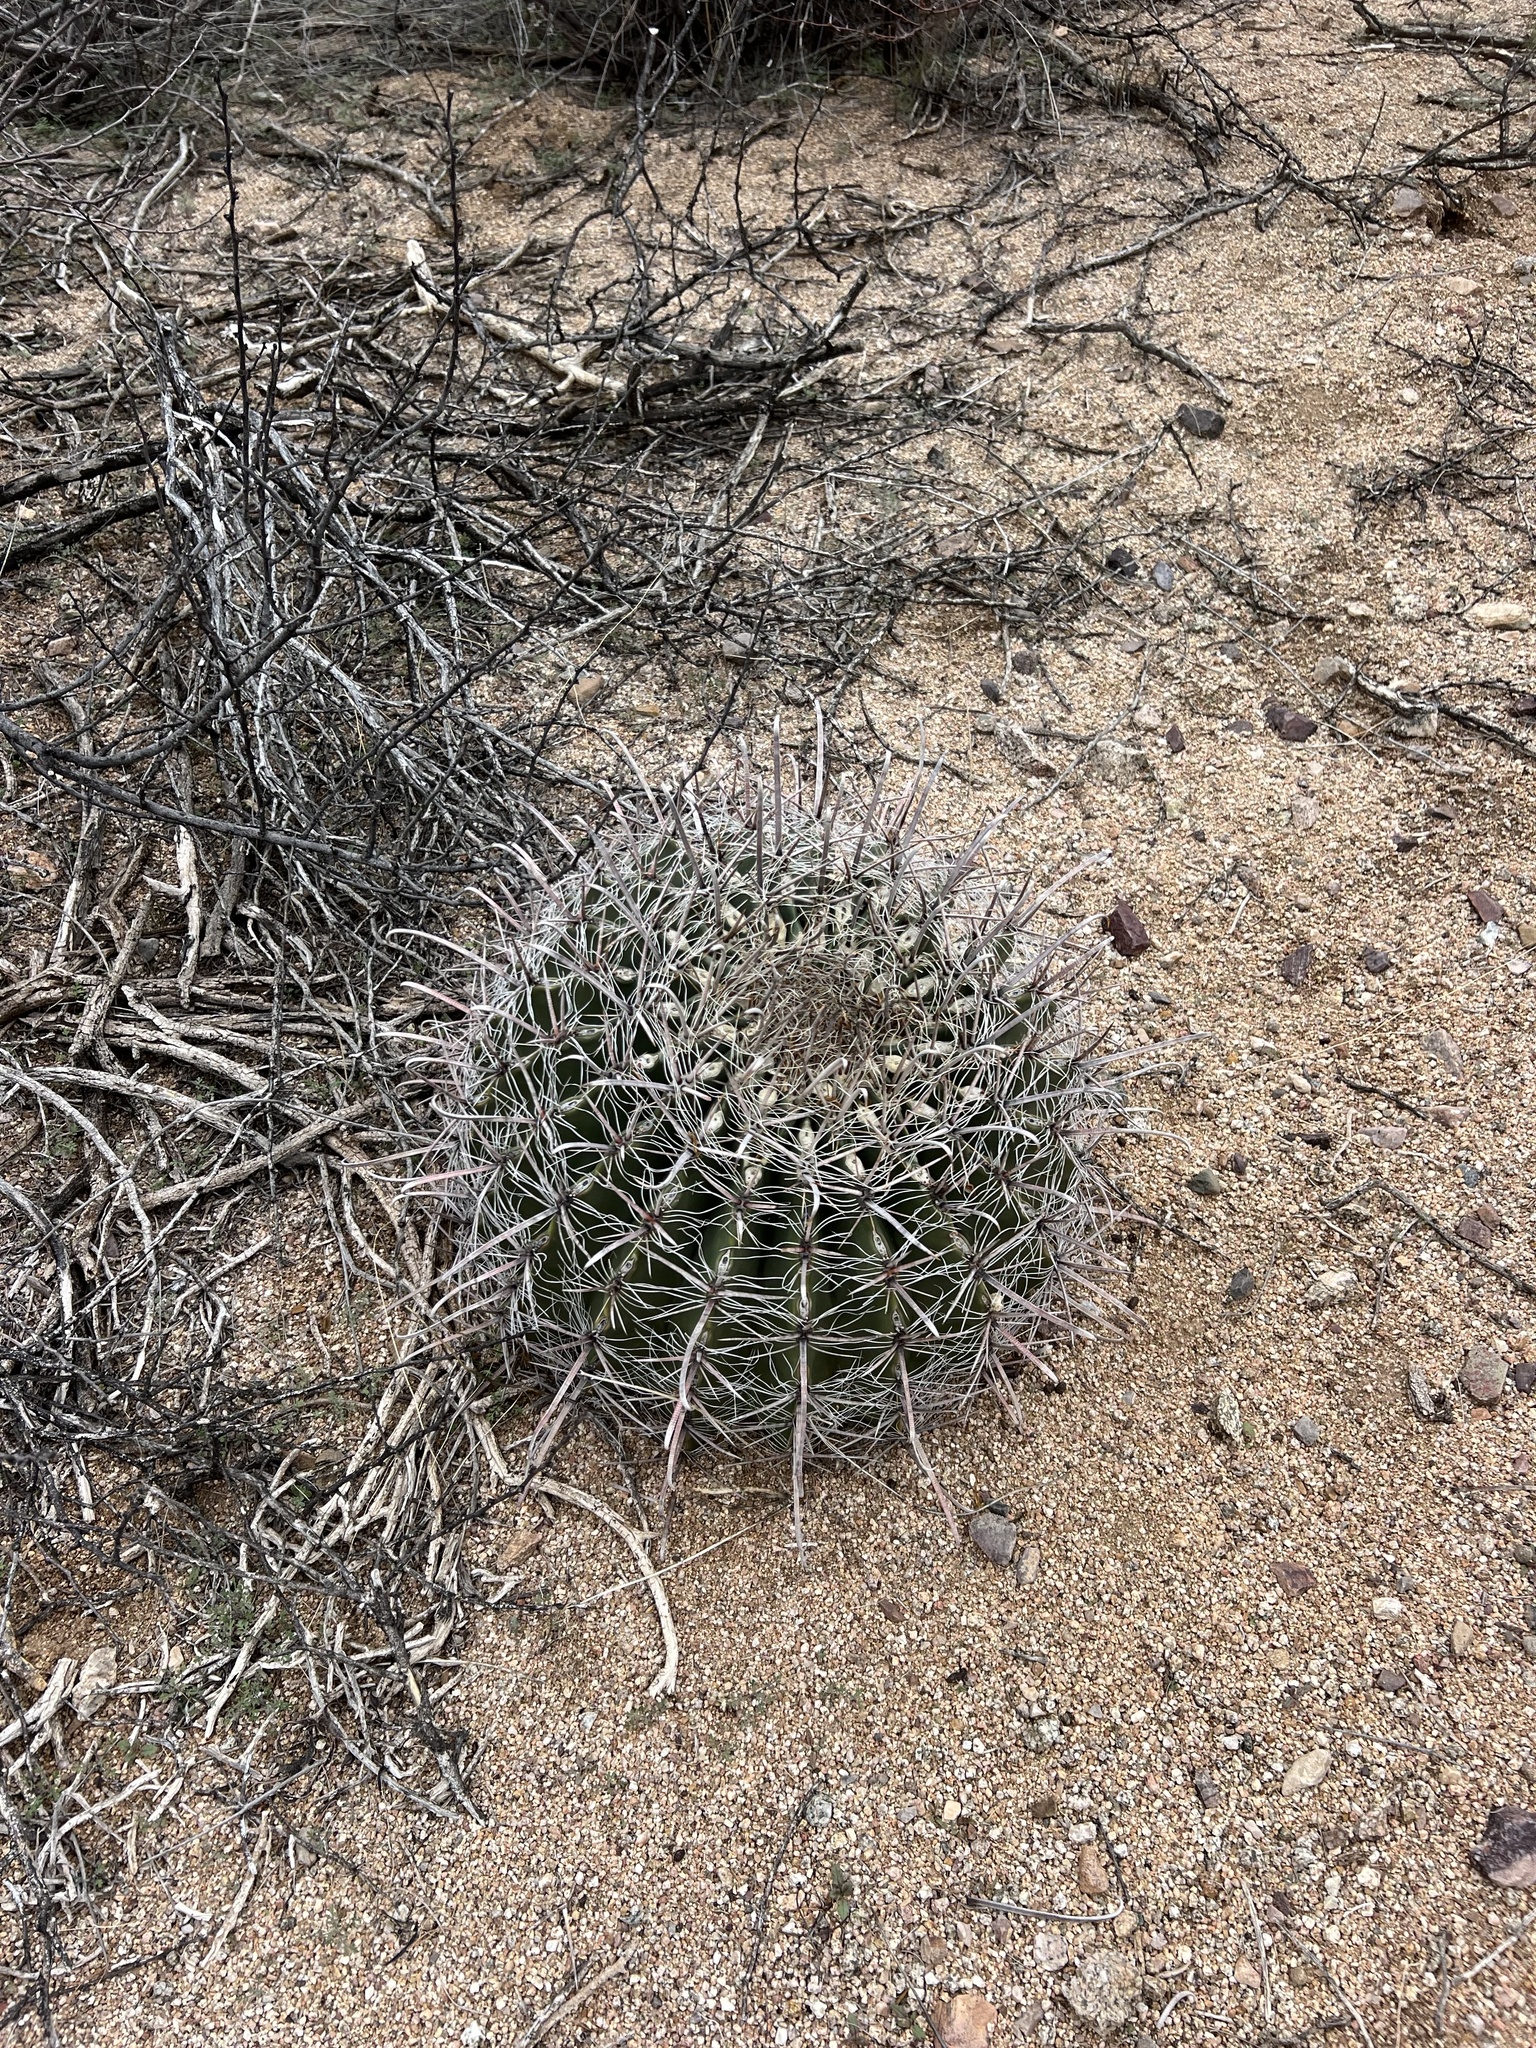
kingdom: Plantae
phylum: Tracheophyta
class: Magnoliopsida
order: Caryophyllales
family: Cactaceae
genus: Ferocactus
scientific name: Ferocactus wislizeni
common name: Candy barrel cactus
